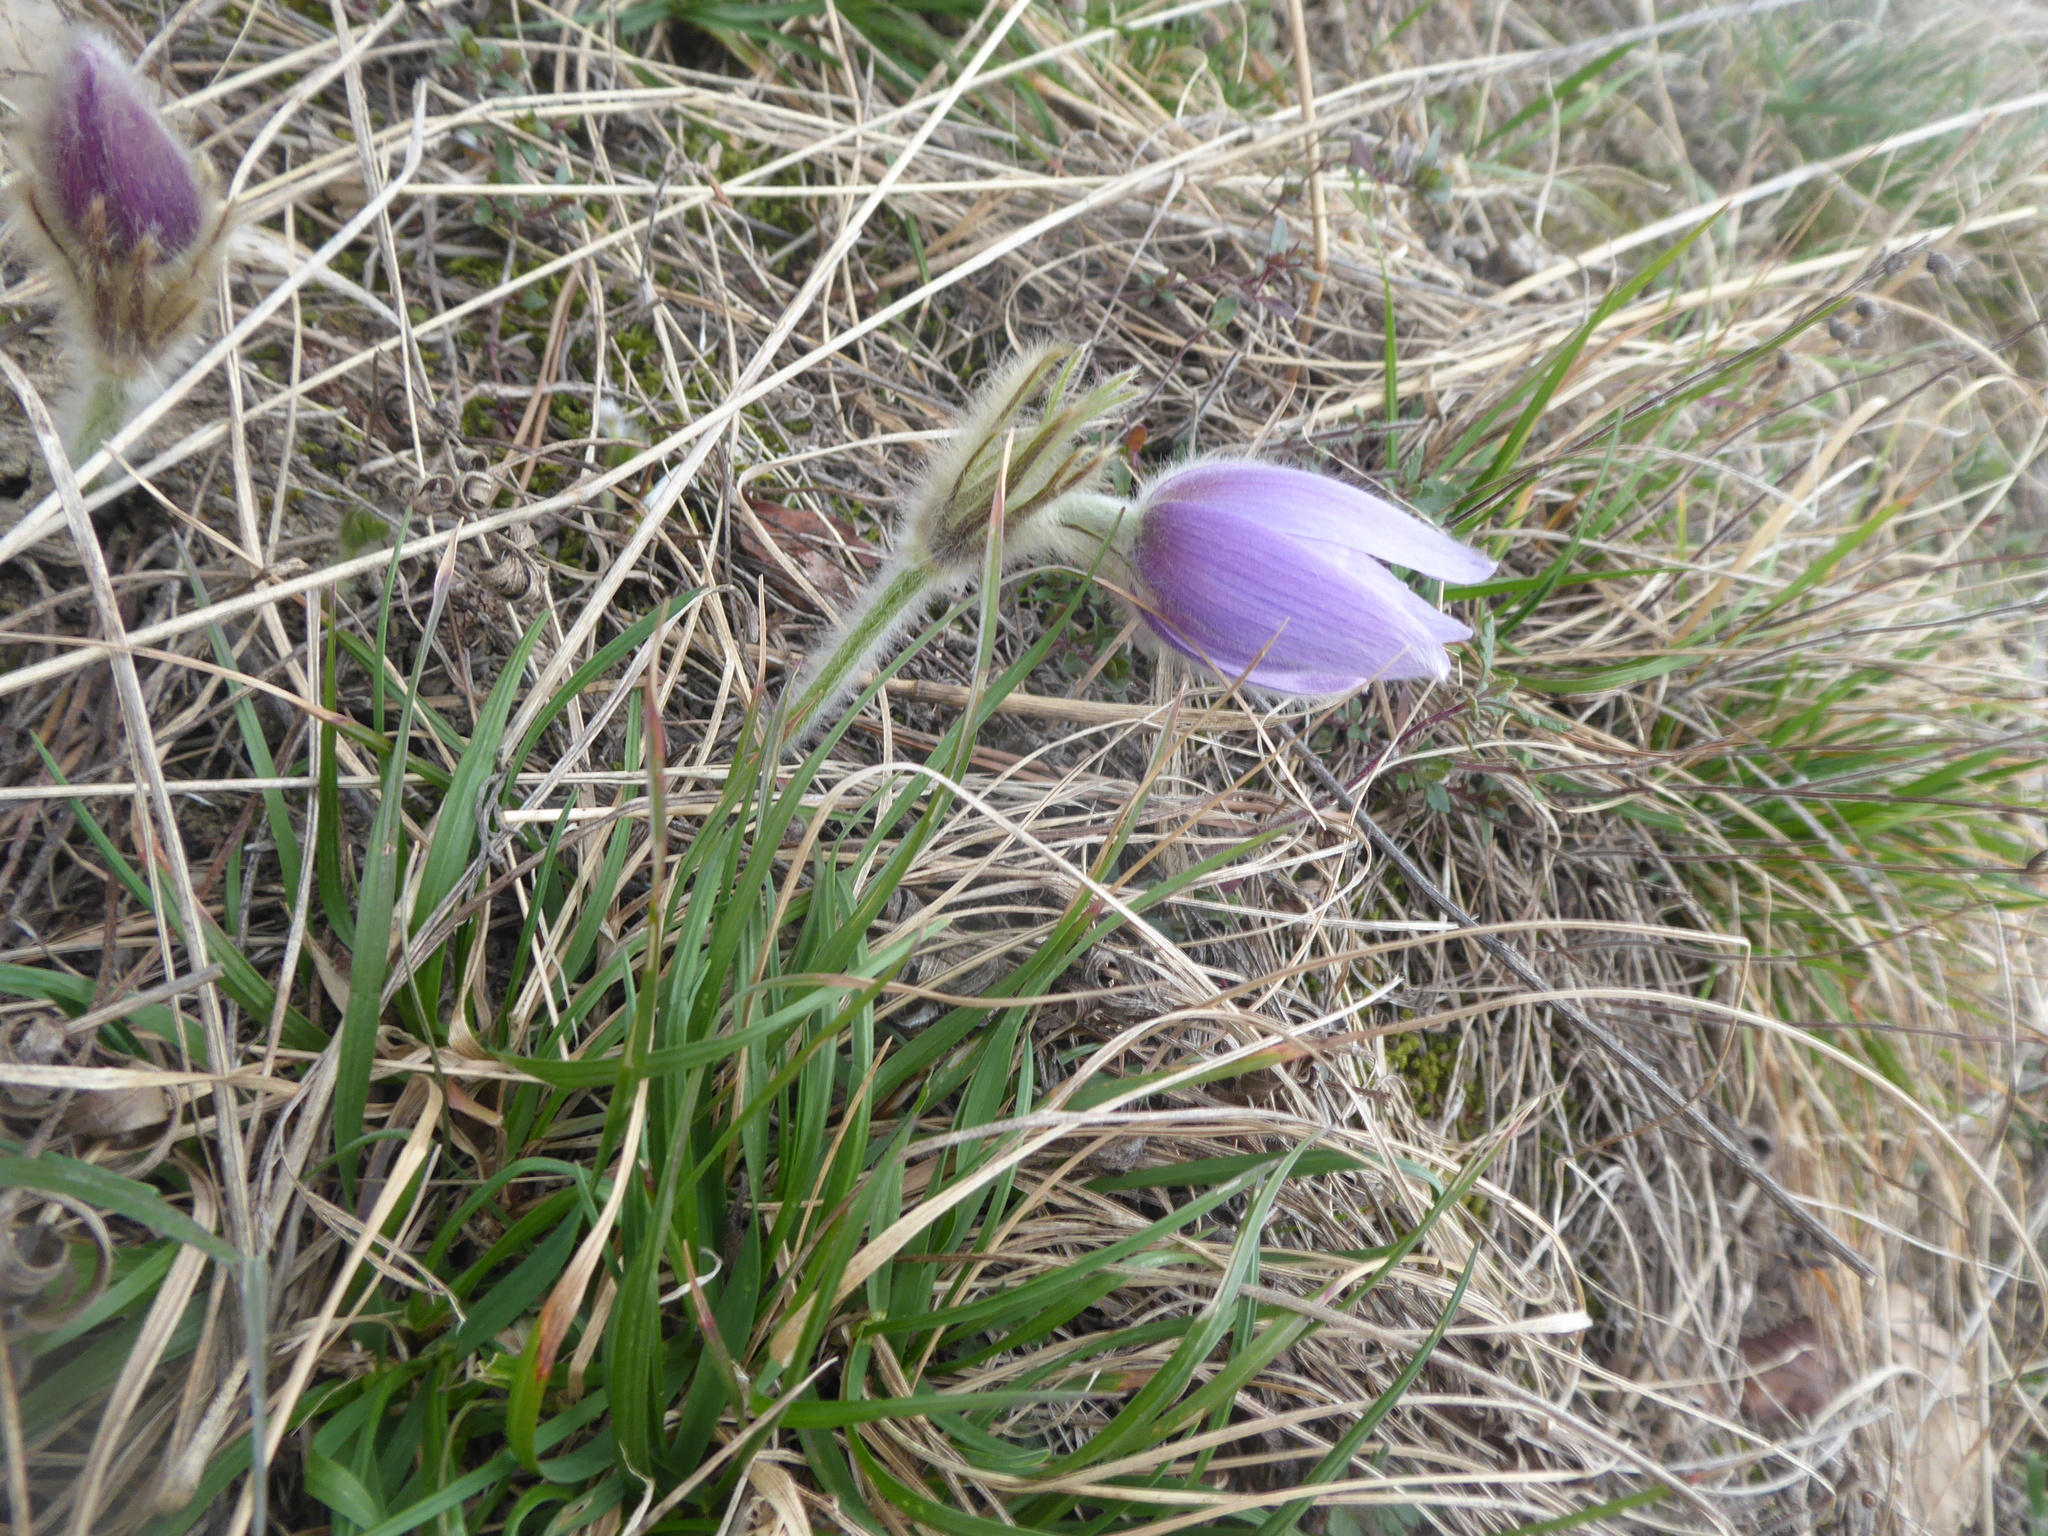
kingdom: Plantae
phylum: Tracheophyta
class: Magnoliopsida
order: Ranunculales
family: Ranunculaceae
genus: Pulsatilla
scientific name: Pulsatilla grandis
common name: Greater pasque flower
